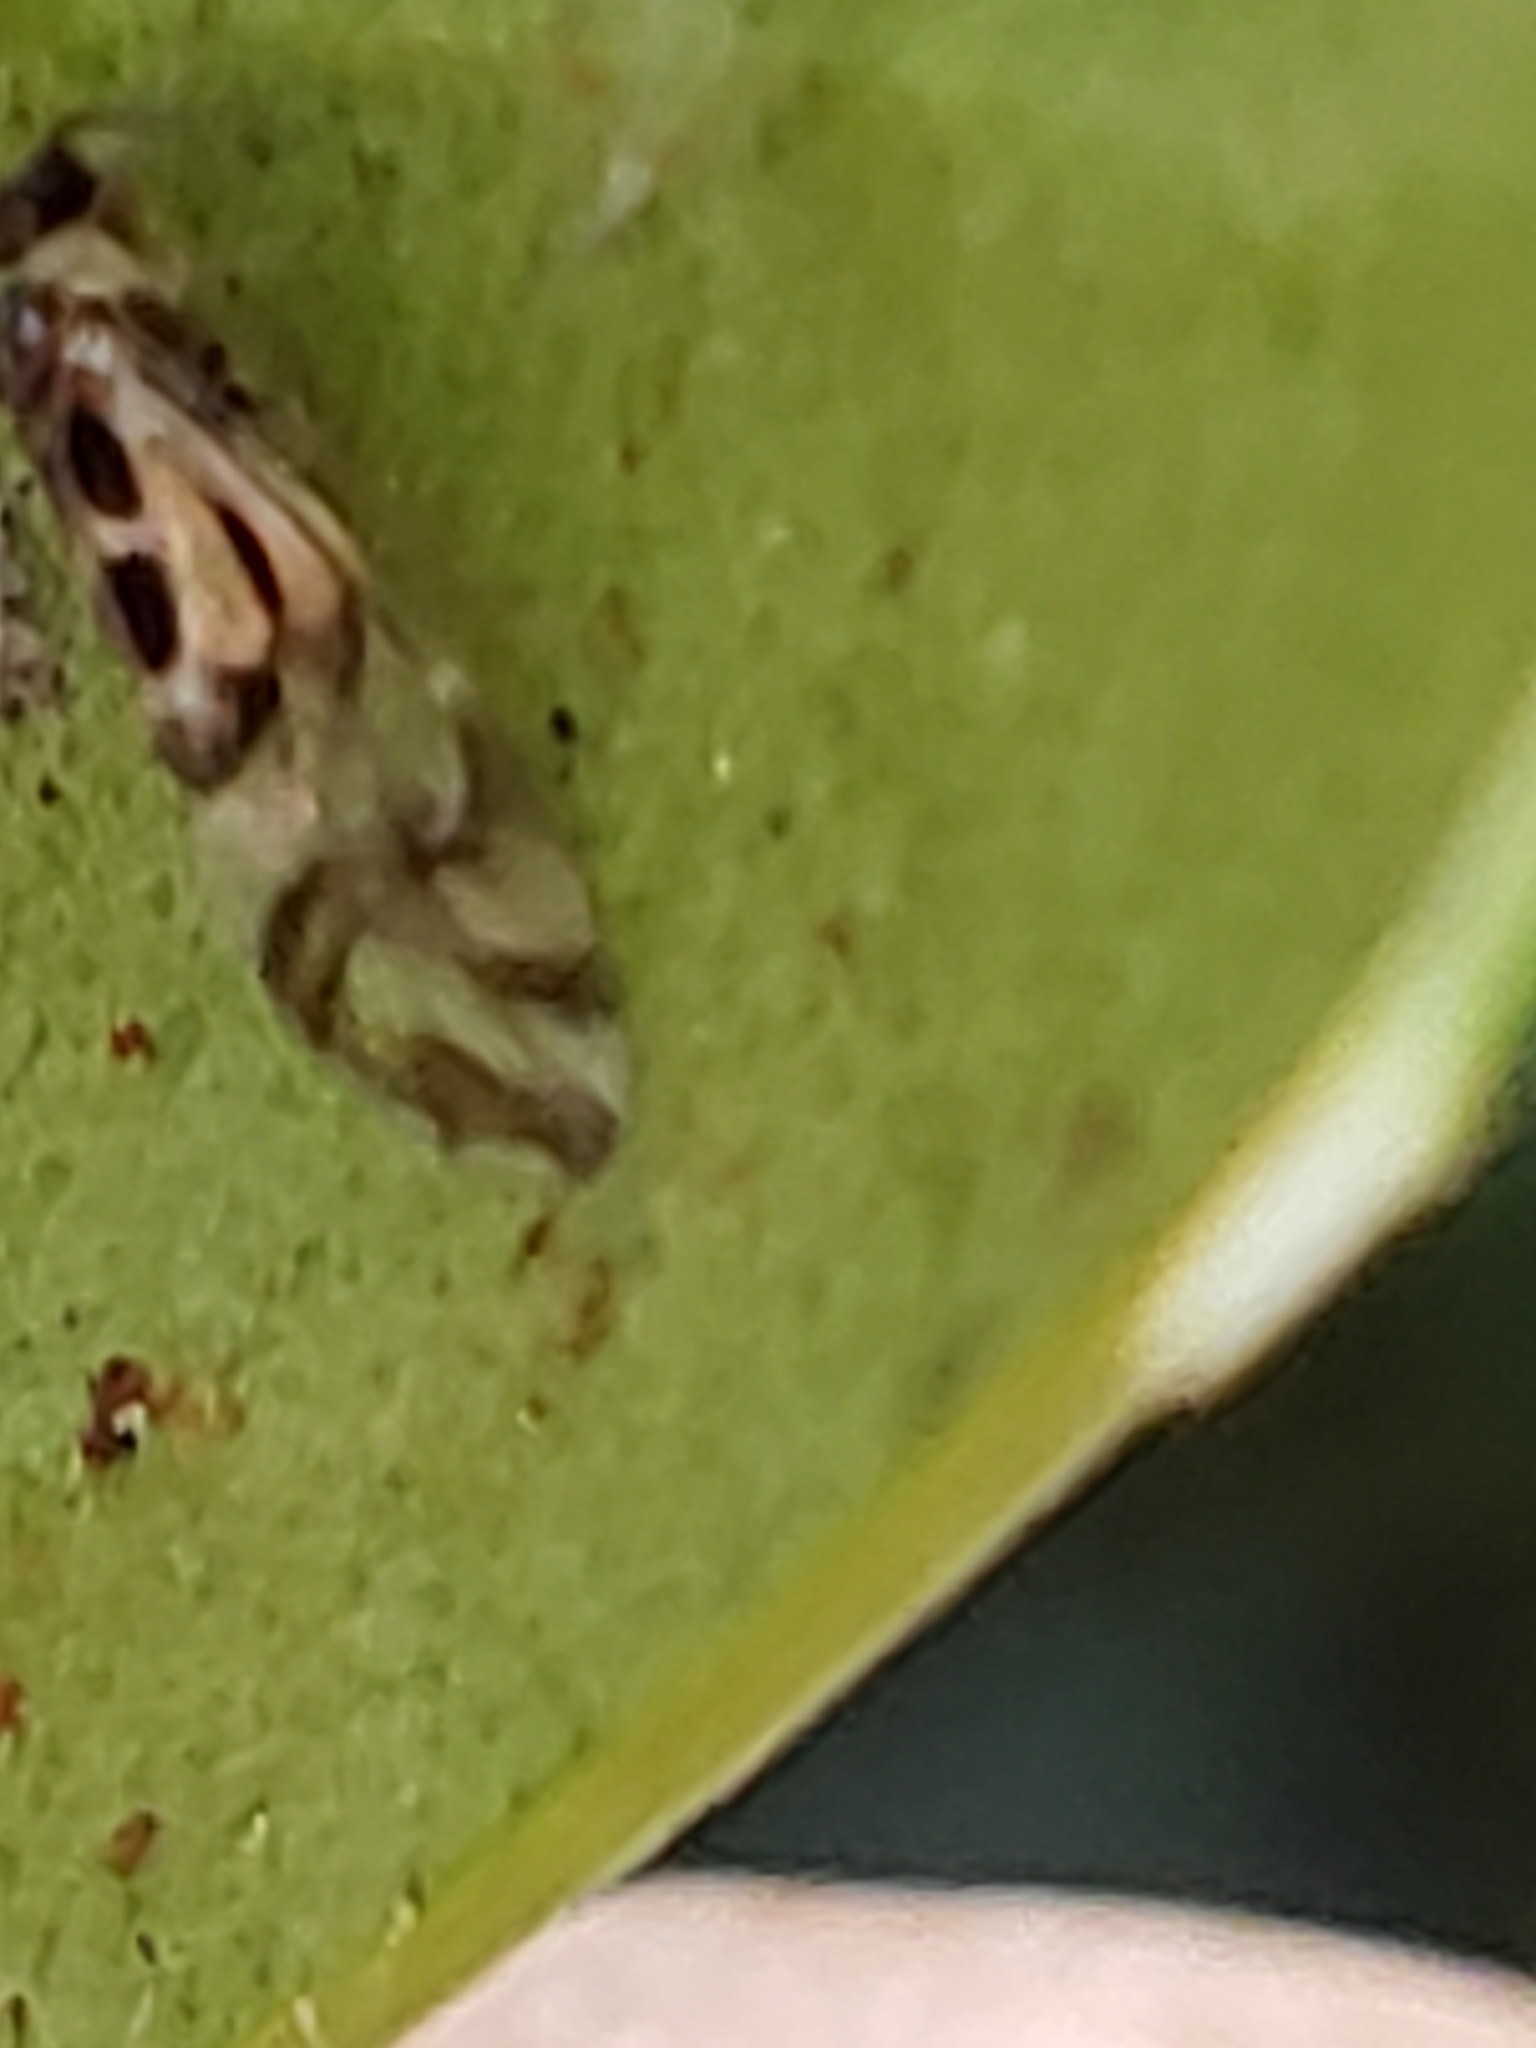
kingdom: Animalia
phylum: Arthropoda
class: Insecta
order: Psocodea
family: Stenopsocidae
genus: Graphopsocus
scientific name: Graphopsocus cruciatus
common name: Lizard bark louse
